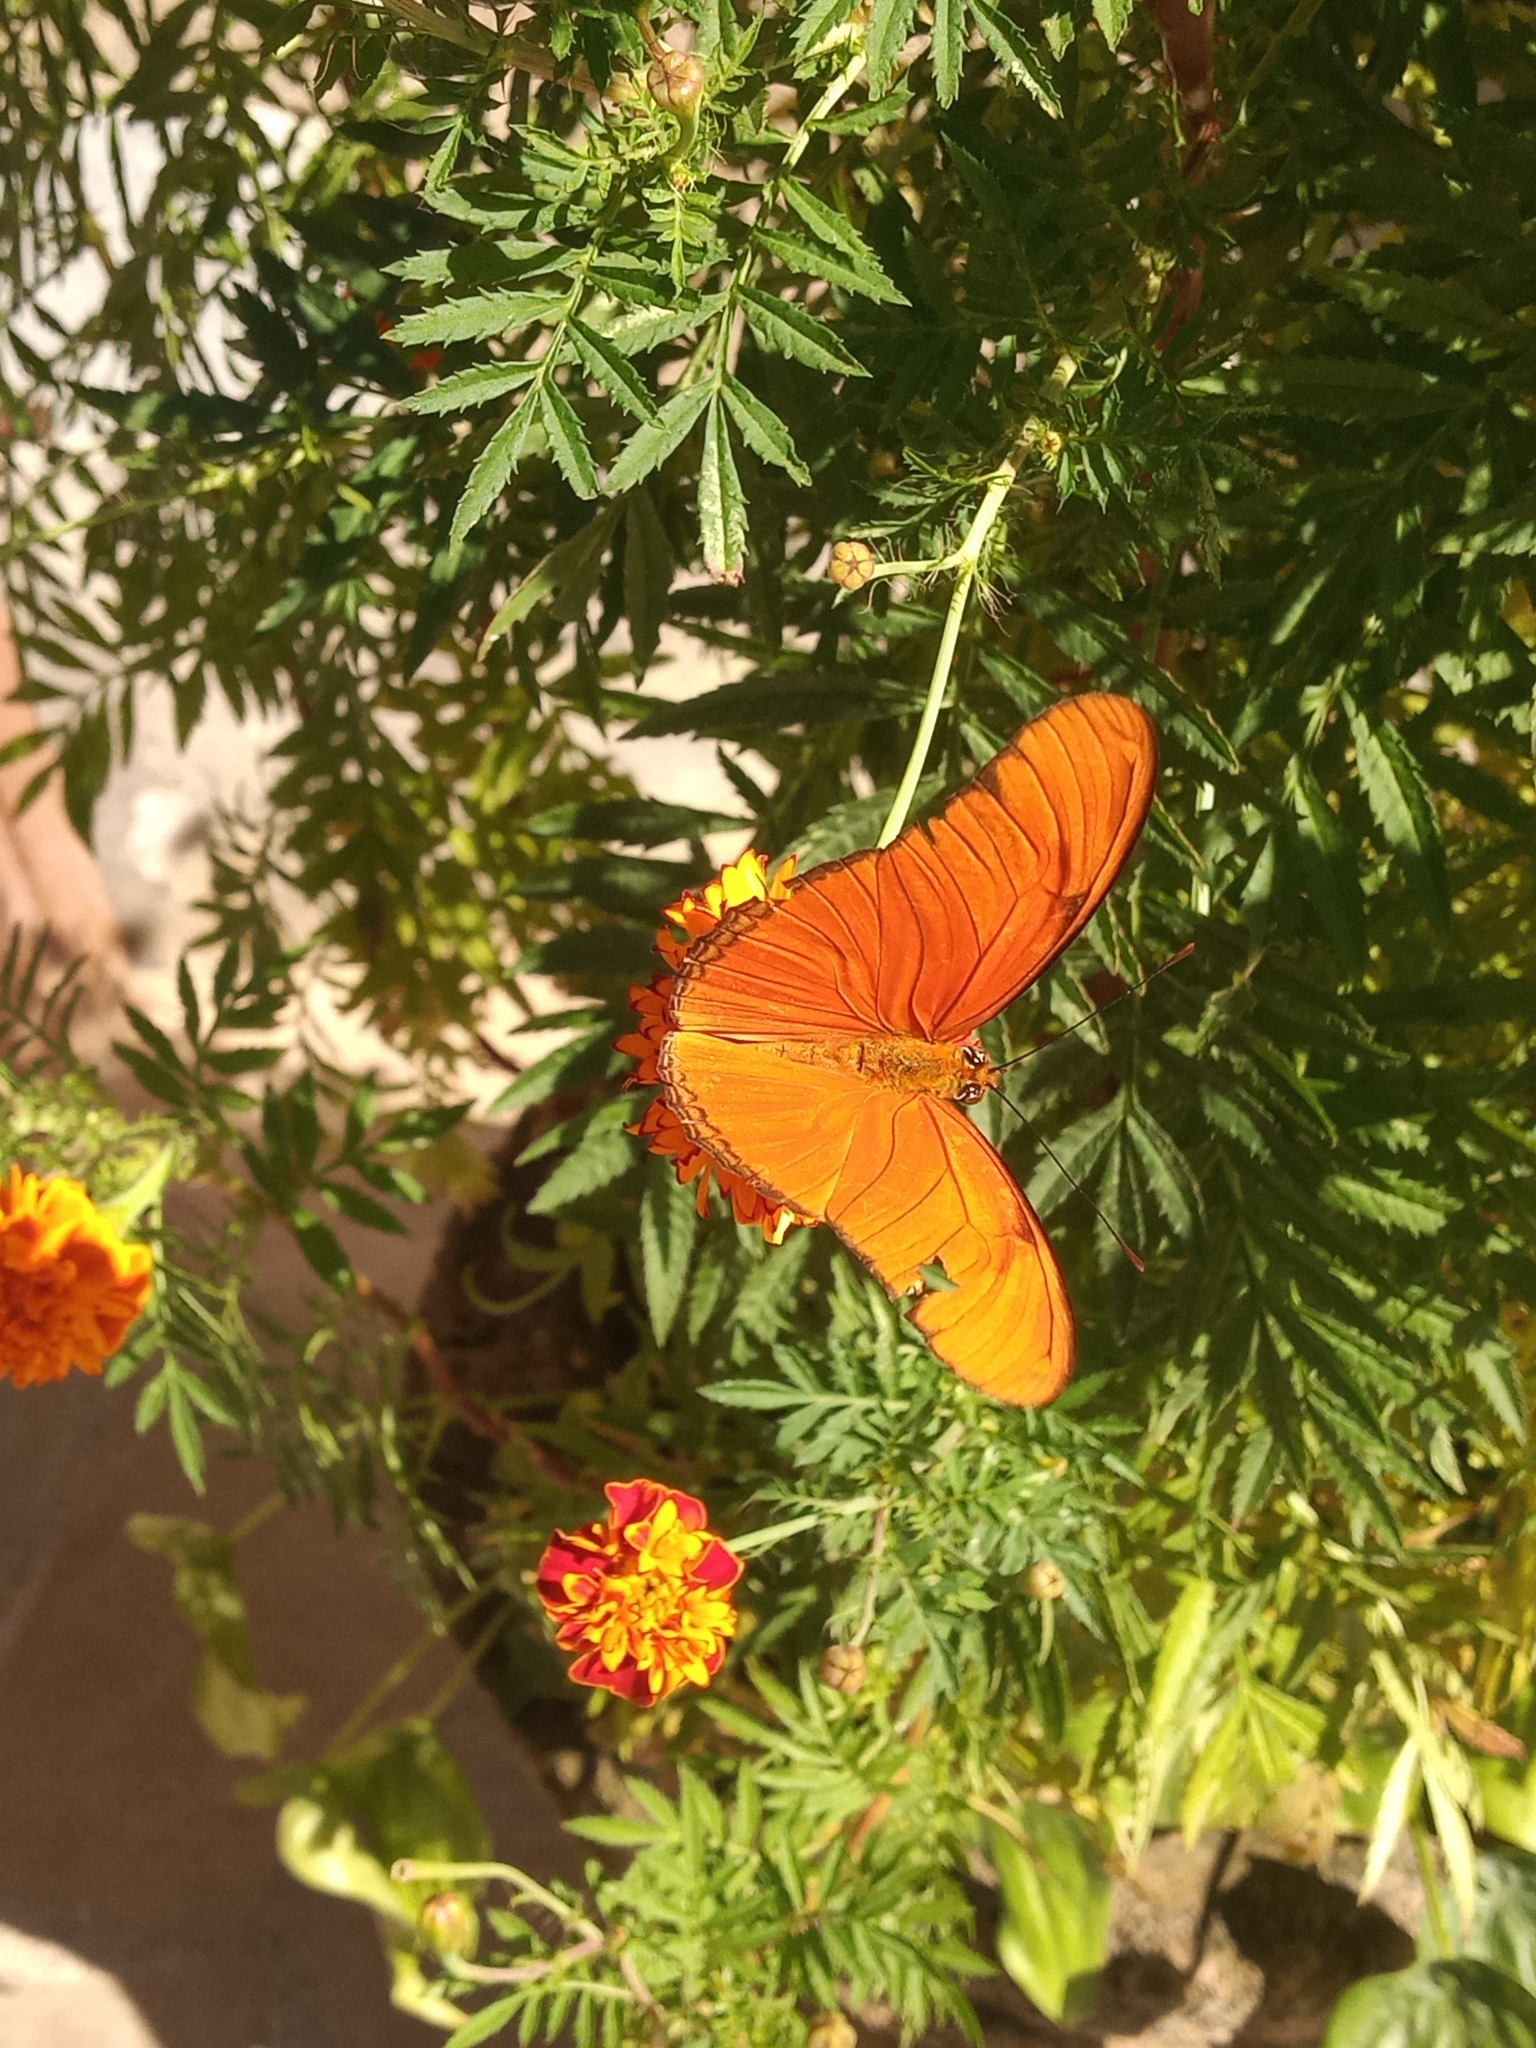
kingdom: Animalia
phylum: Arthropoda
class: Insecta
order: Lepidoptera
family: Nymphalidae
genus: Dryas
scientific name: Dryas iulia
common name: Flambeau
